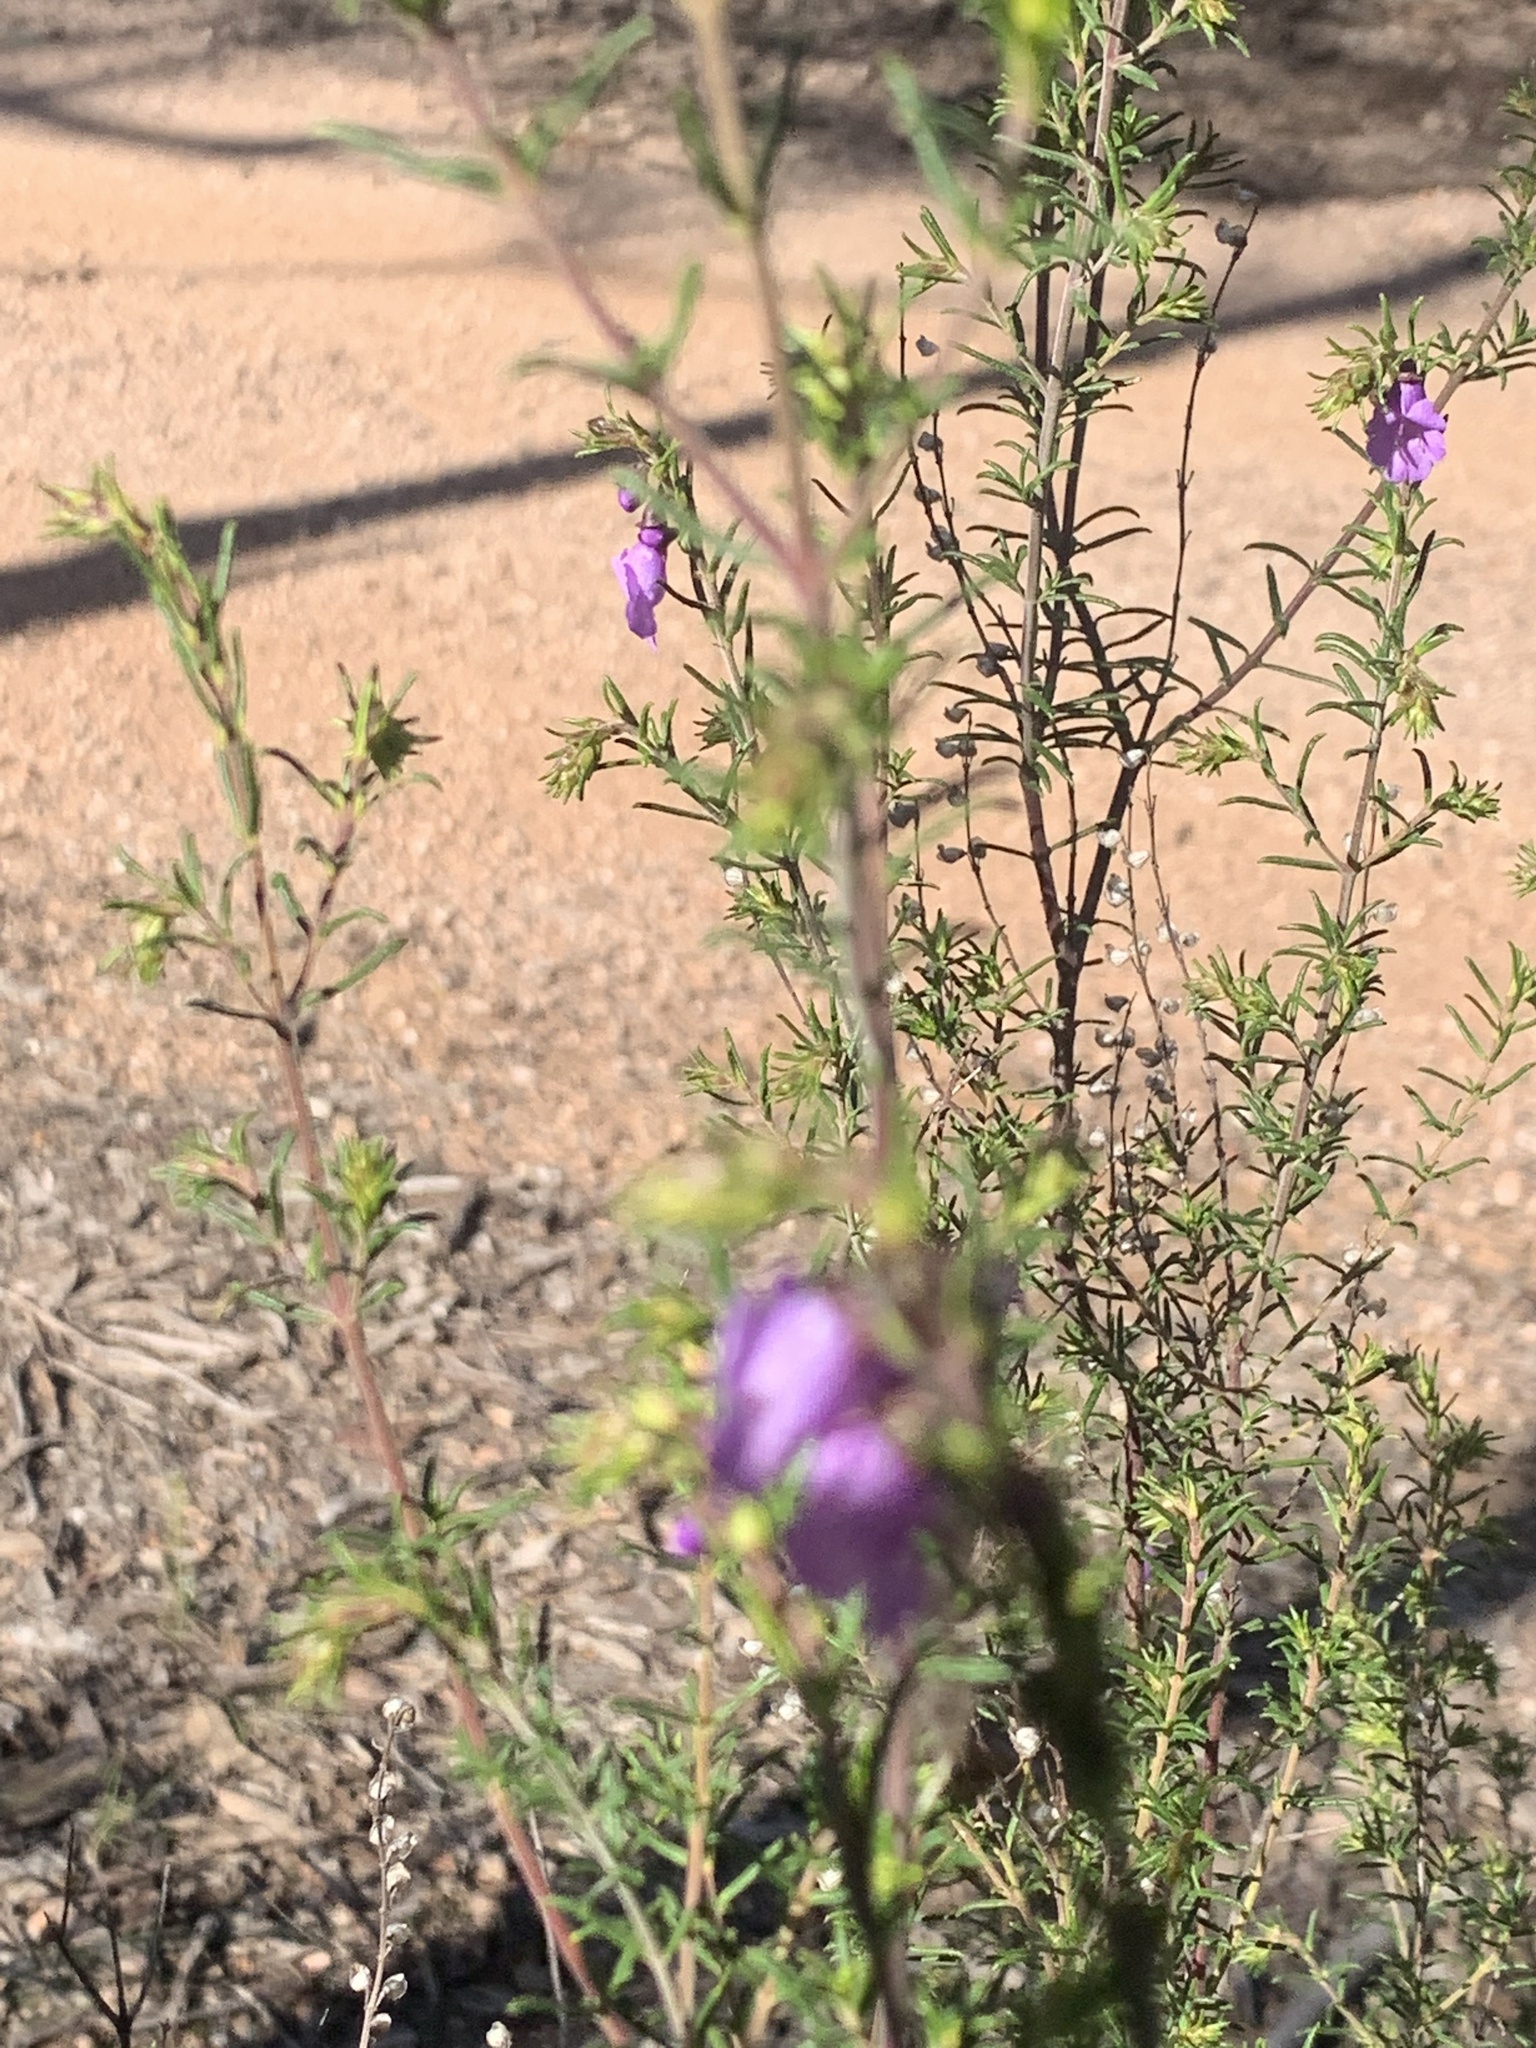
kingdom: Plantae
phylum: Tracheophyta
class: Magnoliopsida
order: Lamiales
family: Lamiaceae
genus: Prostanthera
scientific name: Prostanthera crocodyloides
